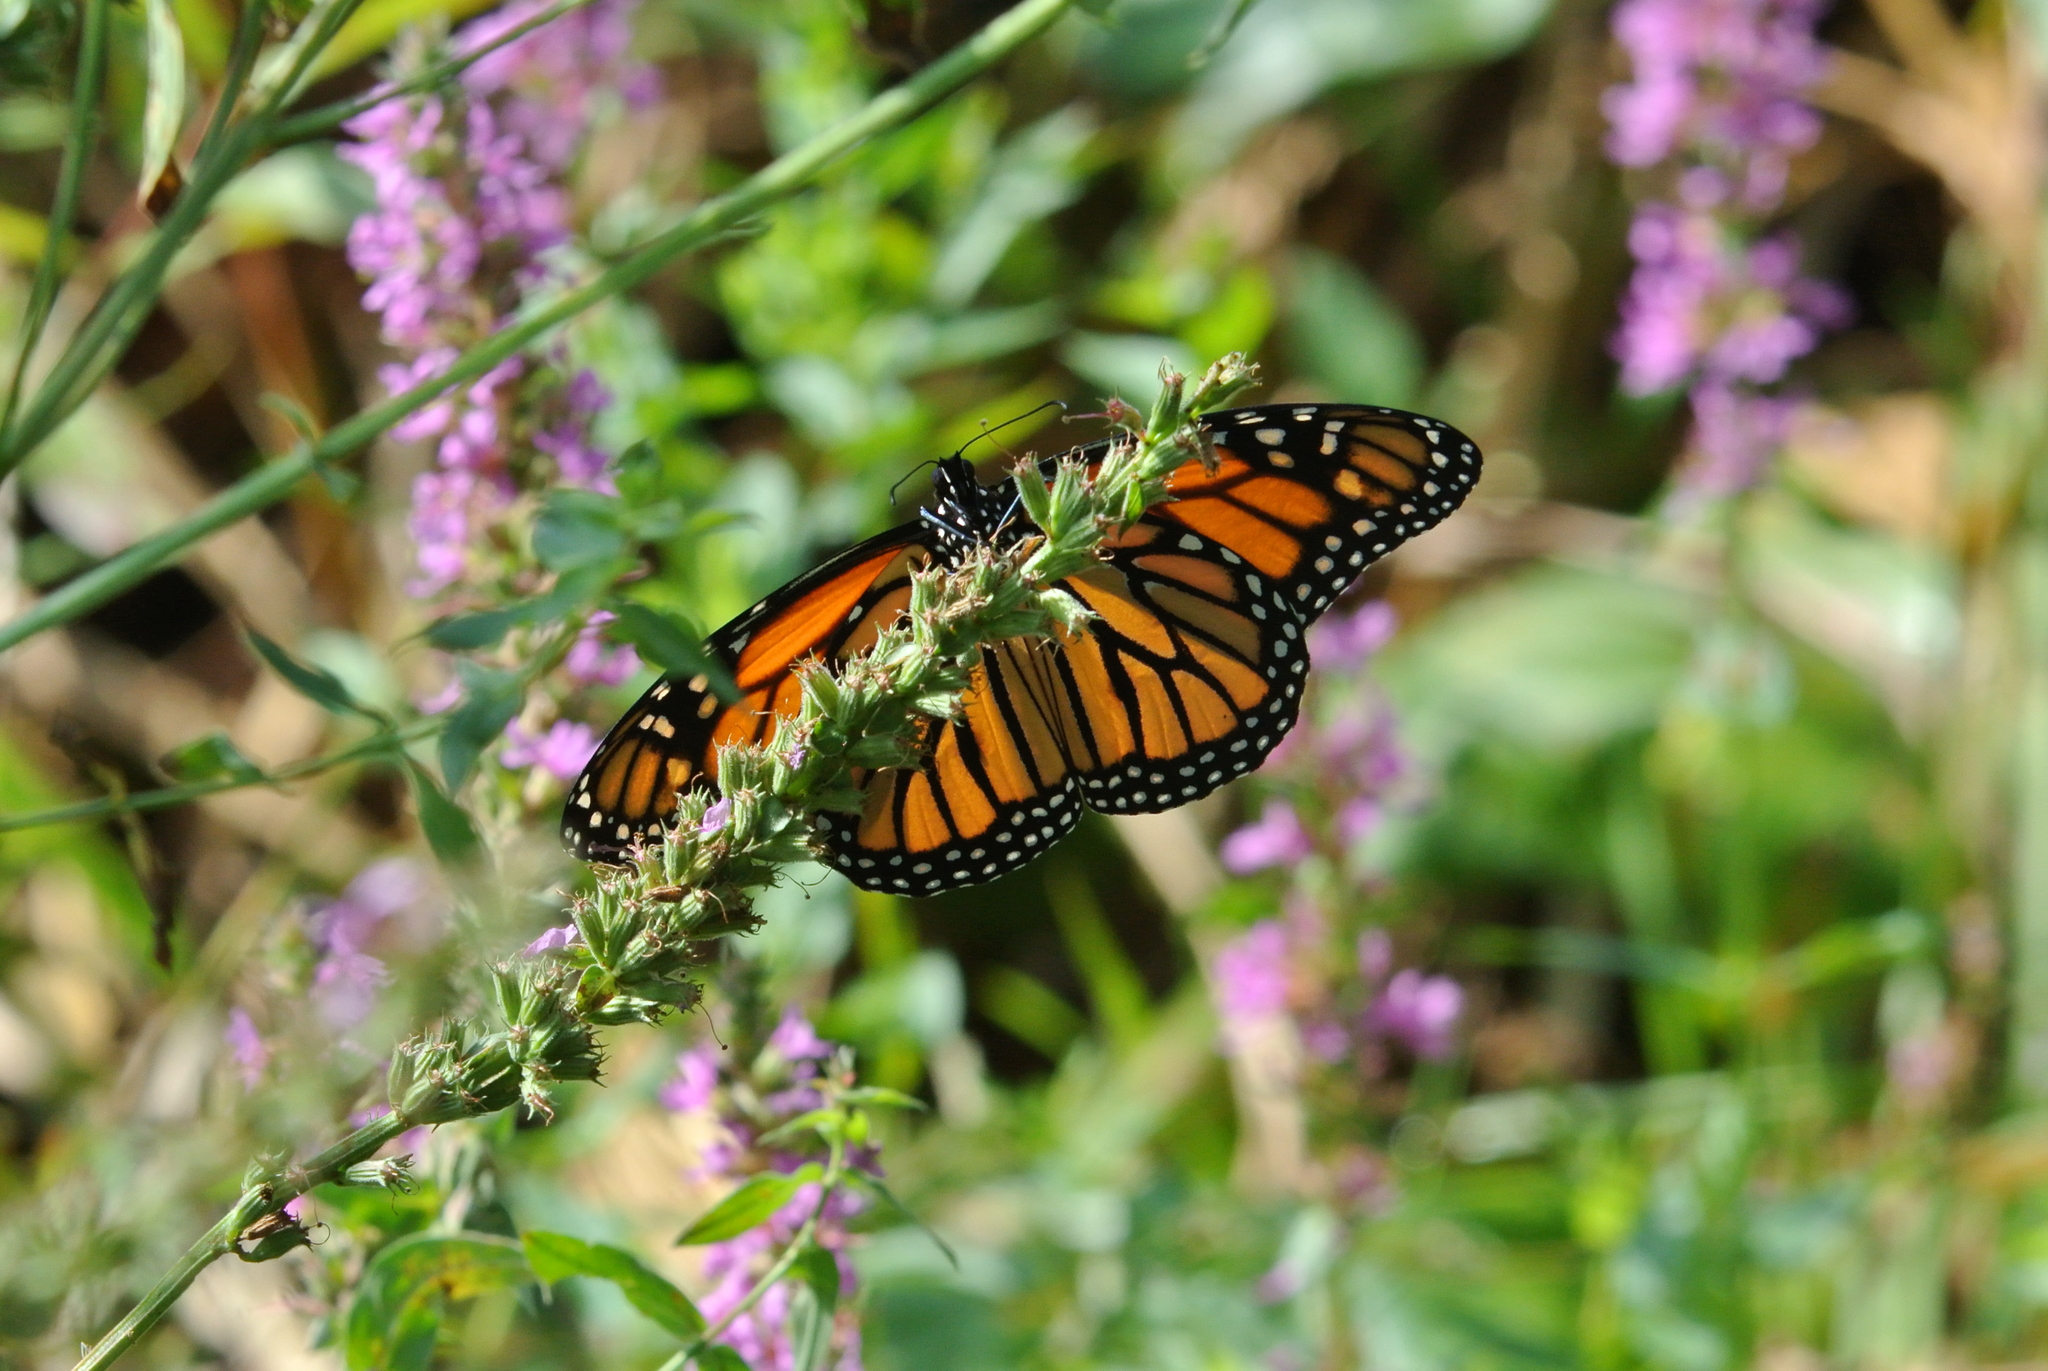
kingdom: Animalia
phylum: Arthropoda
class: Insecta
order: Lepidoptera
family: Nymphalidae
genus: Danaus
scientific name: Danaus plexippus
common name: Monarch
